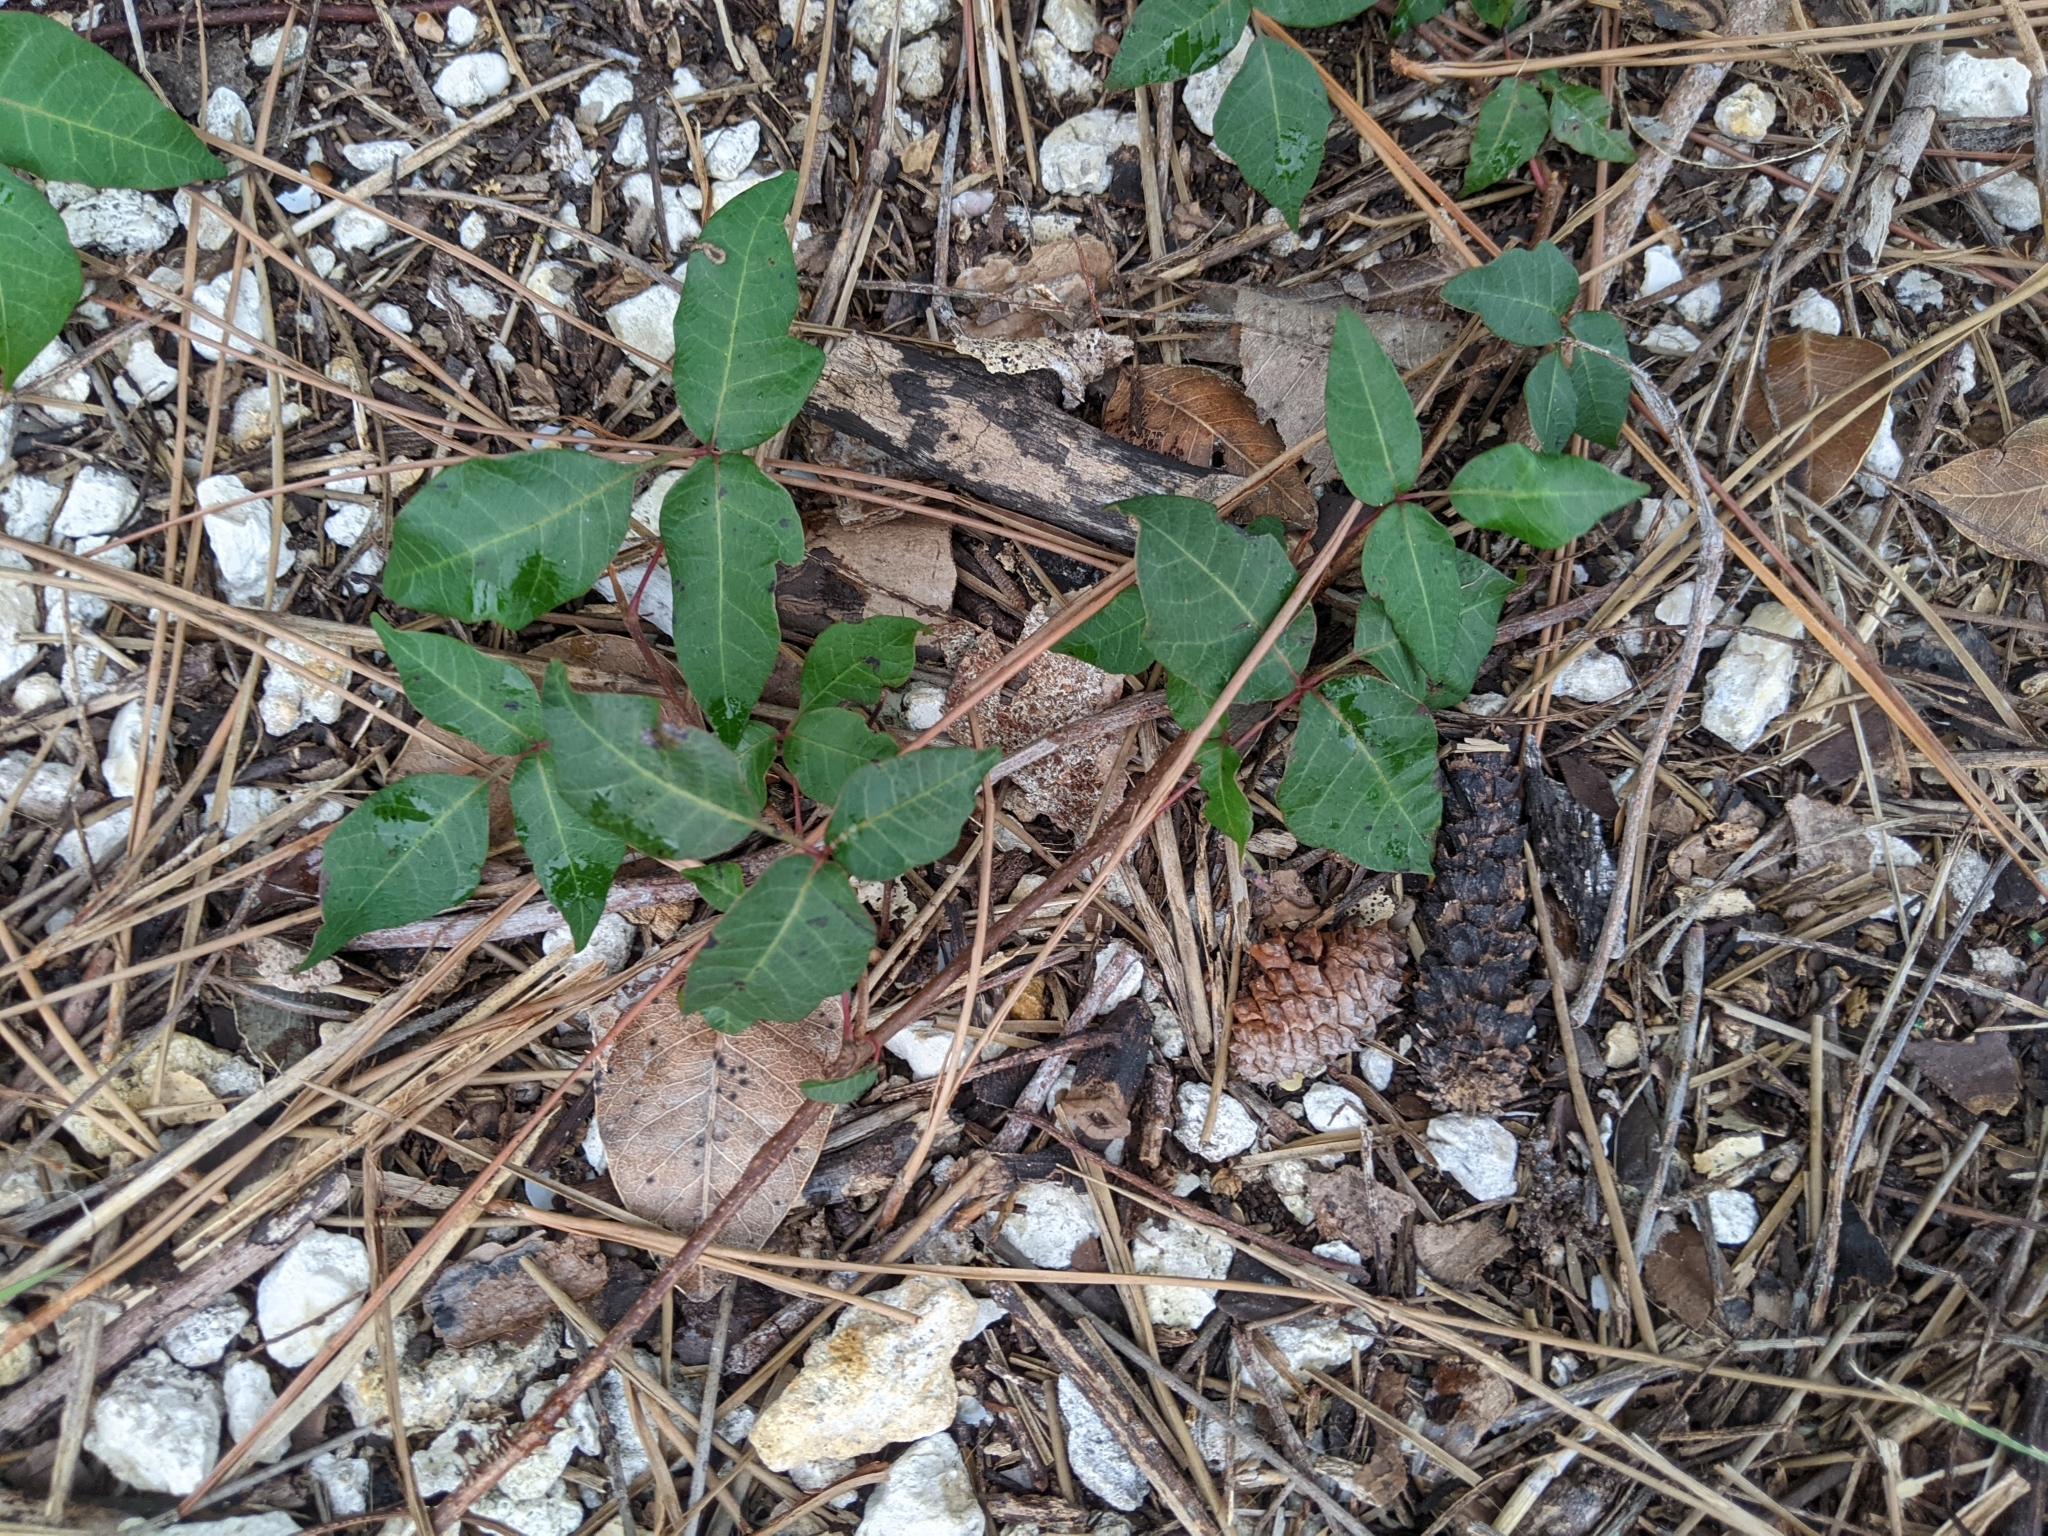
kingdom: Plantae
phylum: Tracheophyta
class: Magnoliopsida
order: Sapindales
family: Anacardiaceae
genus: Toxicodendron
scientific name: Toxicodendron radicans
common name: Poison ivy
